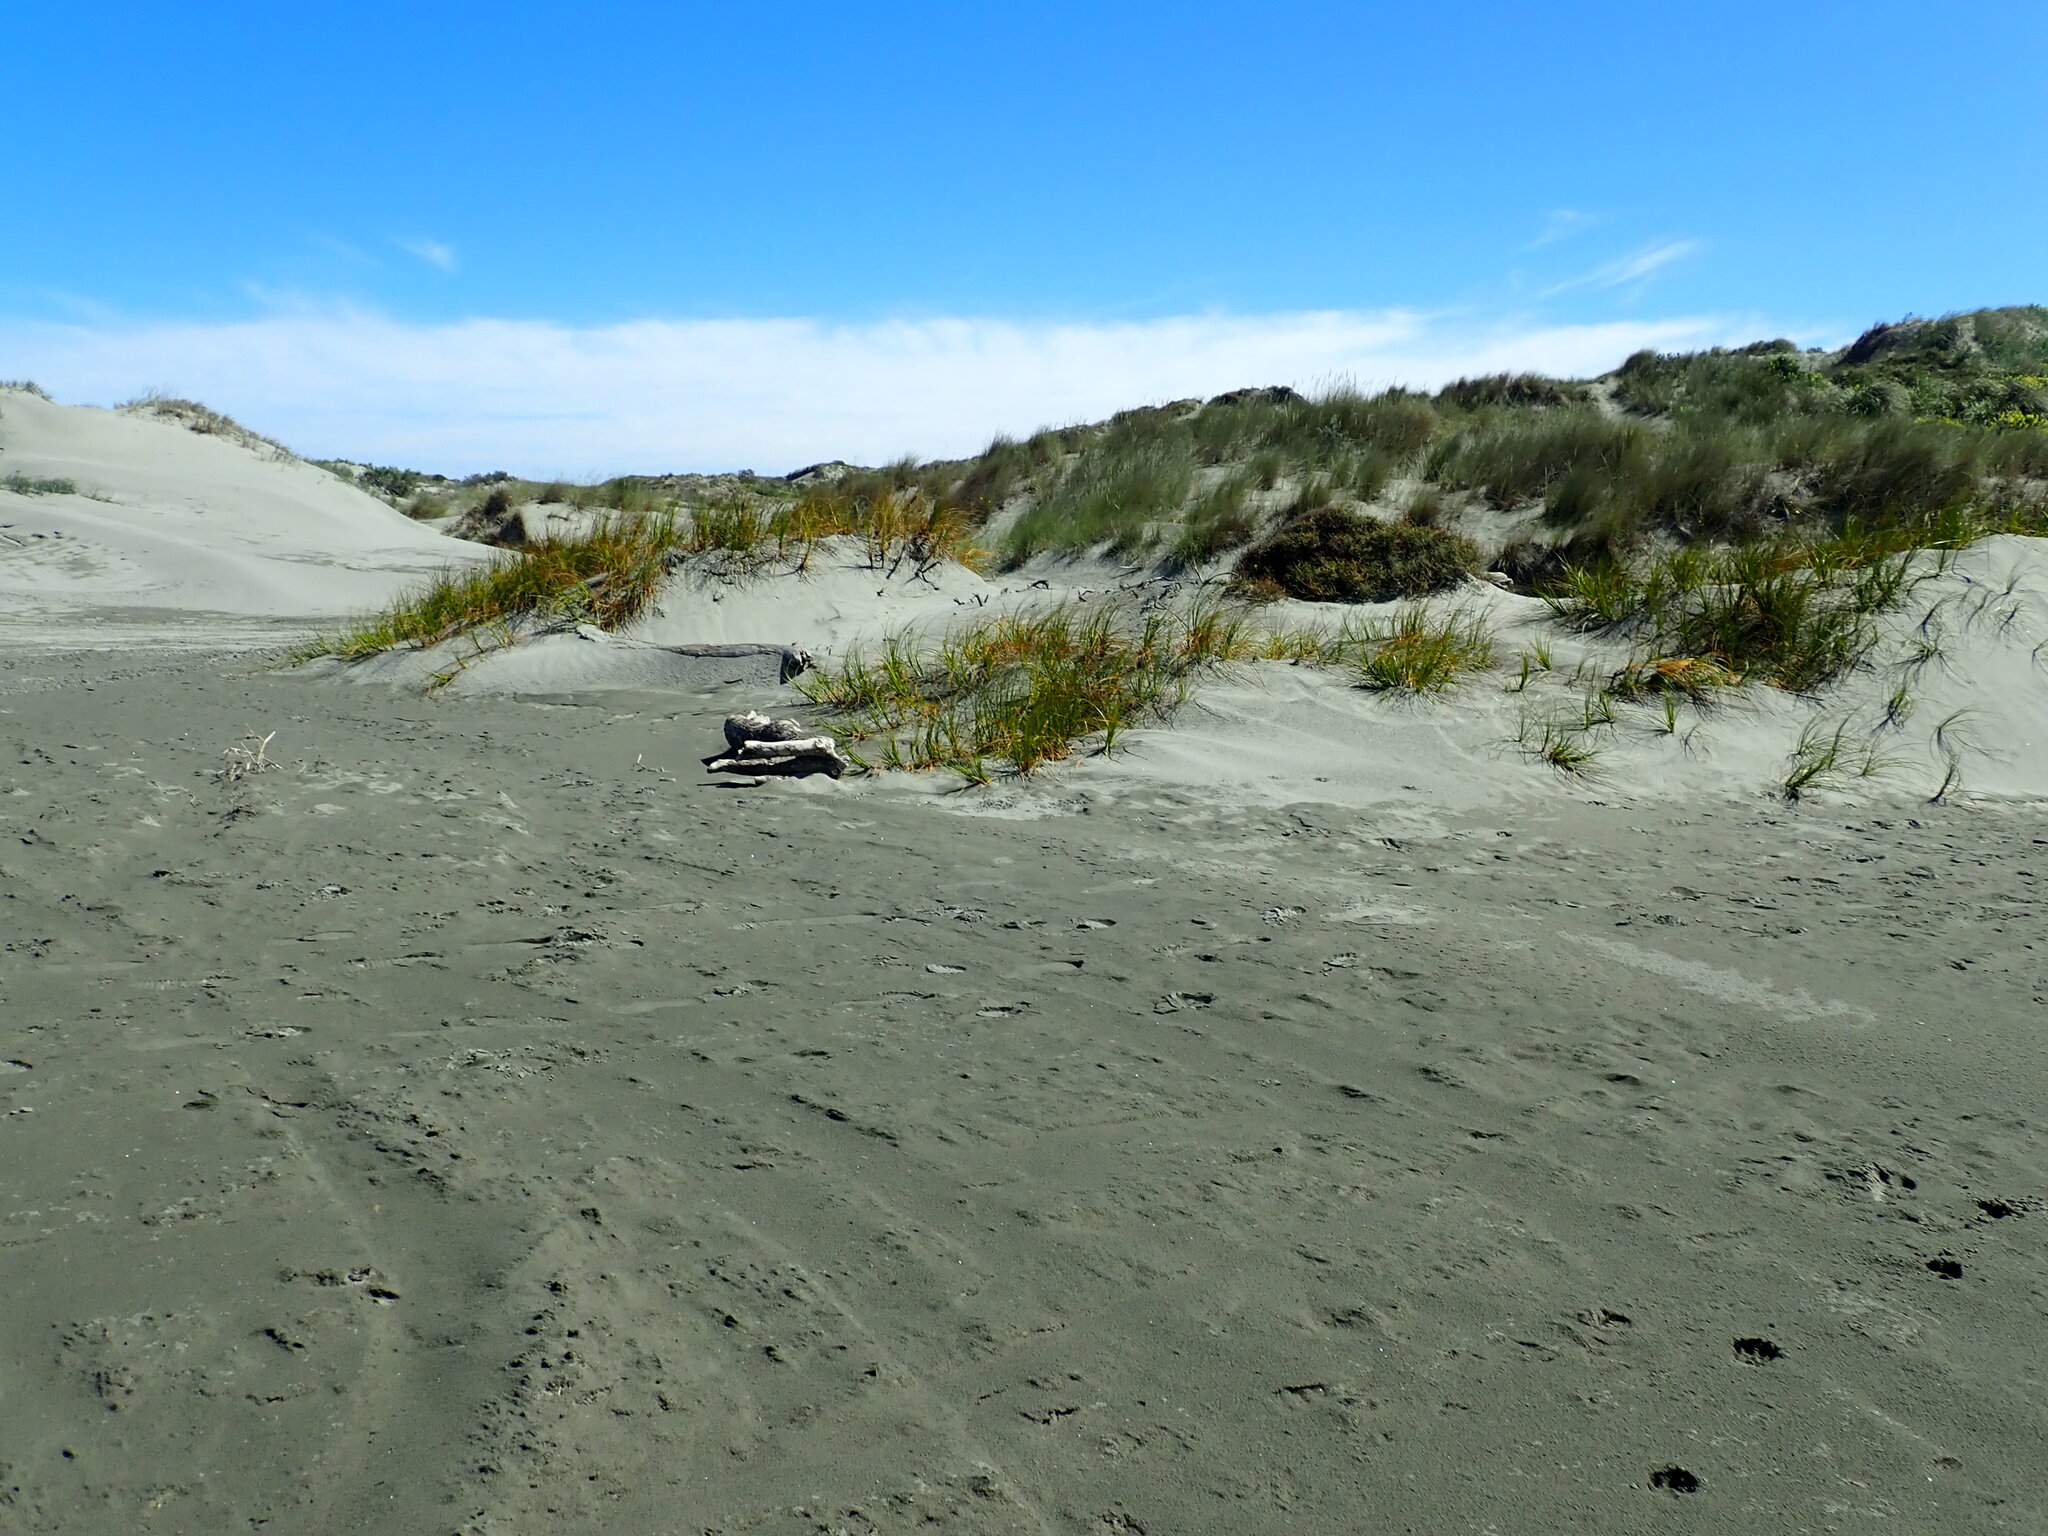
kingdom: Plantae
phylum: Tracheophyta
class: Liliopsida
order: Poales
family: Cyperaceae
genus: Ficinia
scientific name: Ficinia spiralis
